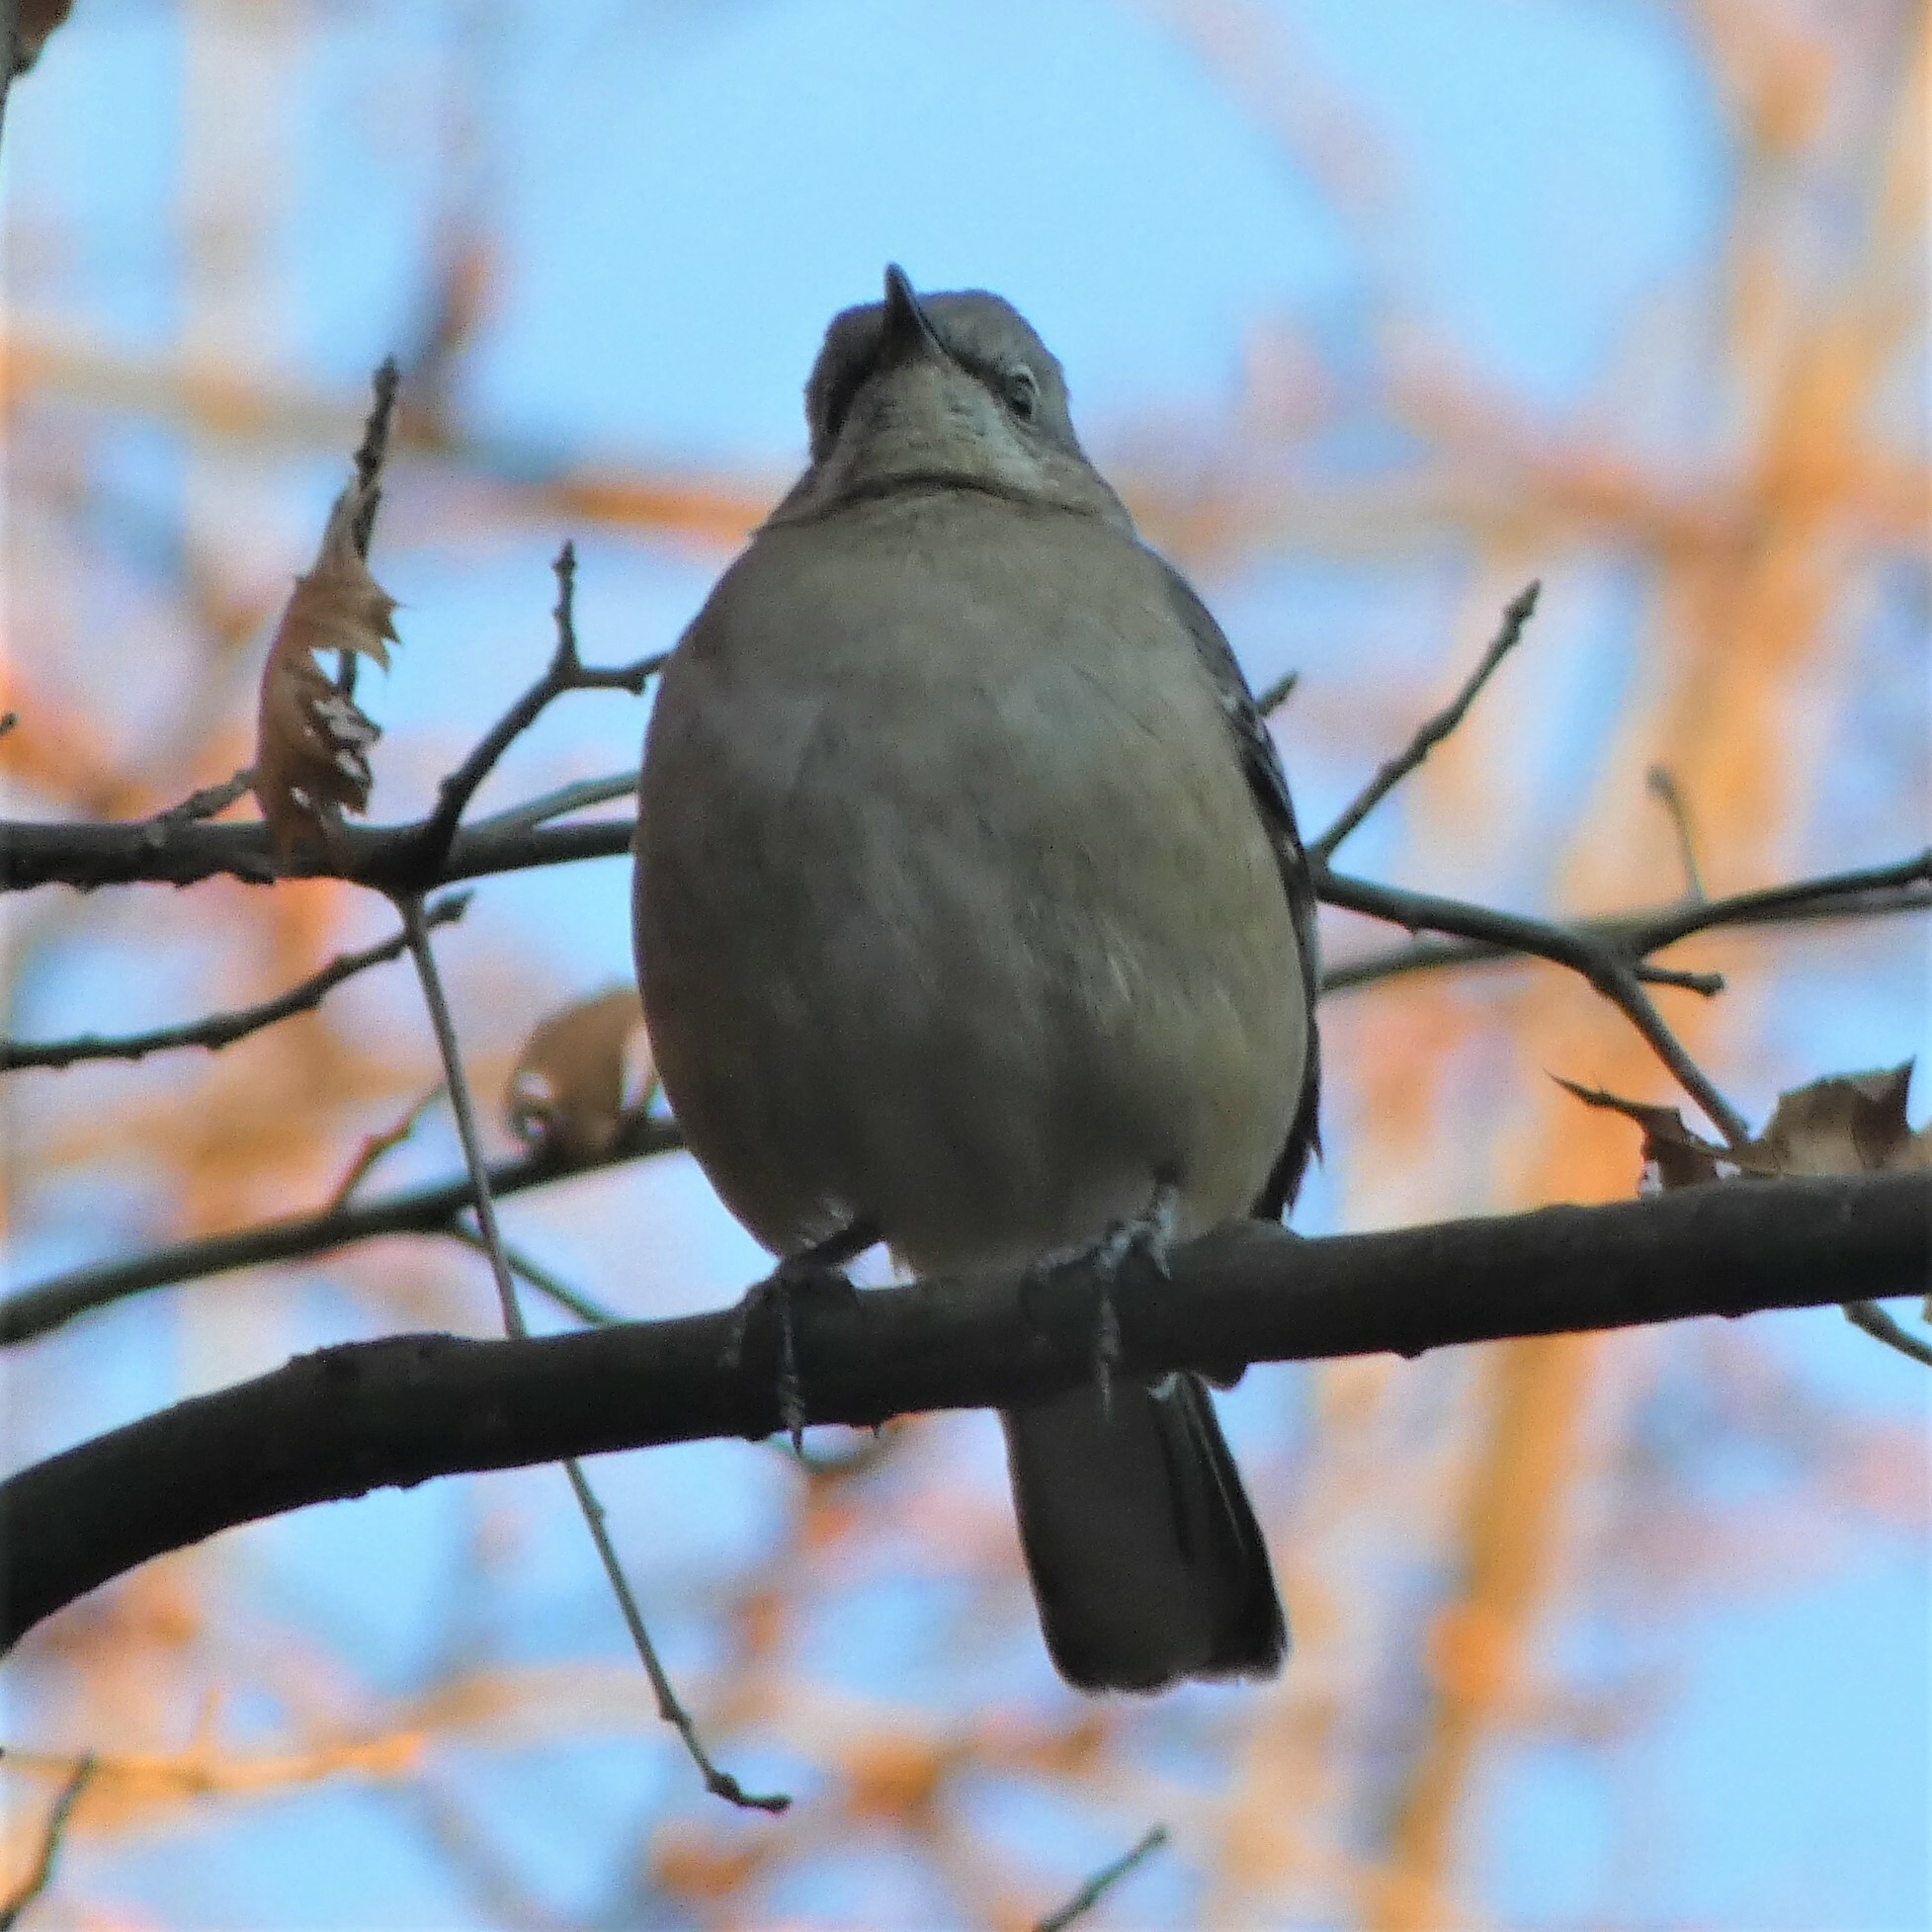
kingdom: Animalia
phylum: Chordata
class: Aves
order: Passeriformes
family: Mimidae
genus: Mimus
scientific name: Mimus polyglottos
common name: Northern mockingbird
